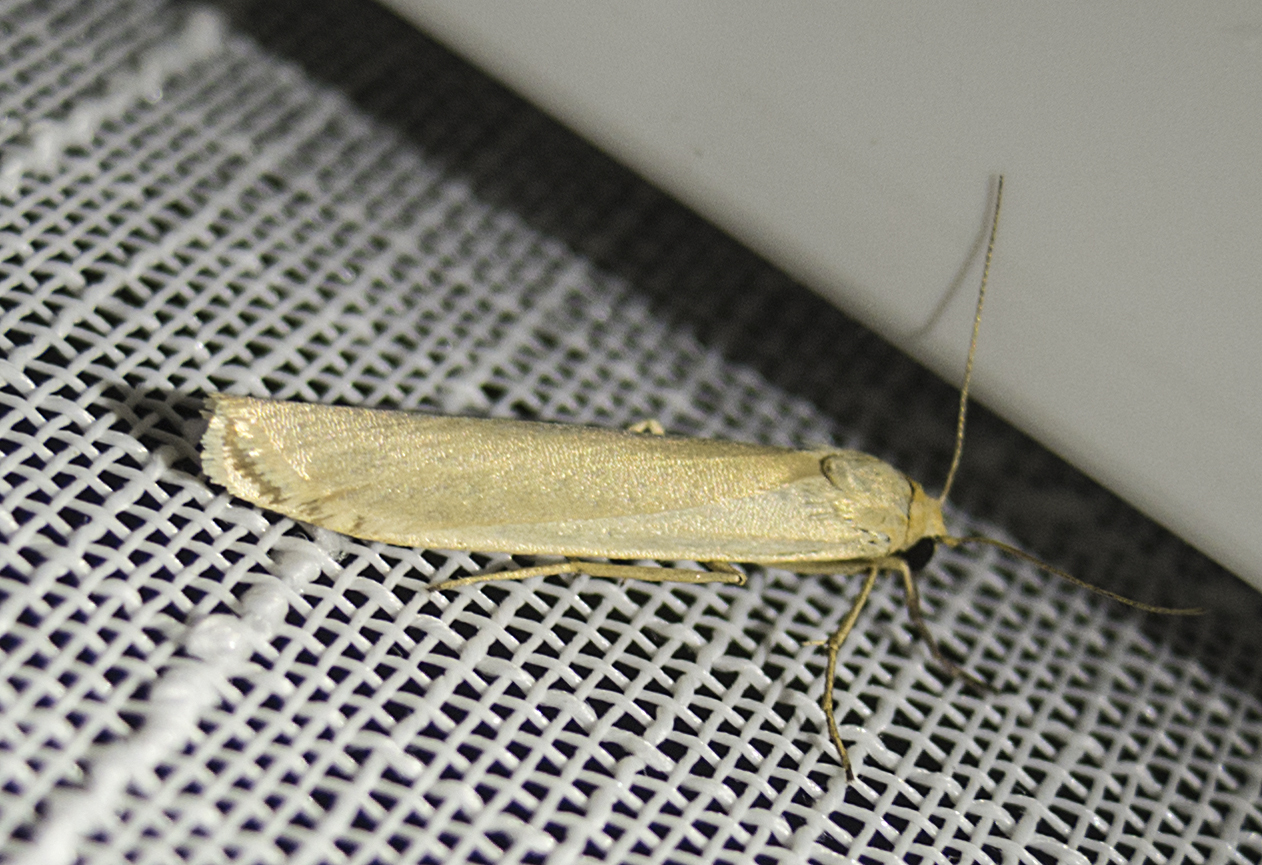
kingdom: Animalia
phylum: Arthropoda
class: Insecta
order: Lepidoptera
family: Erebidae
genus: Eilema
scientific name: Eilema
